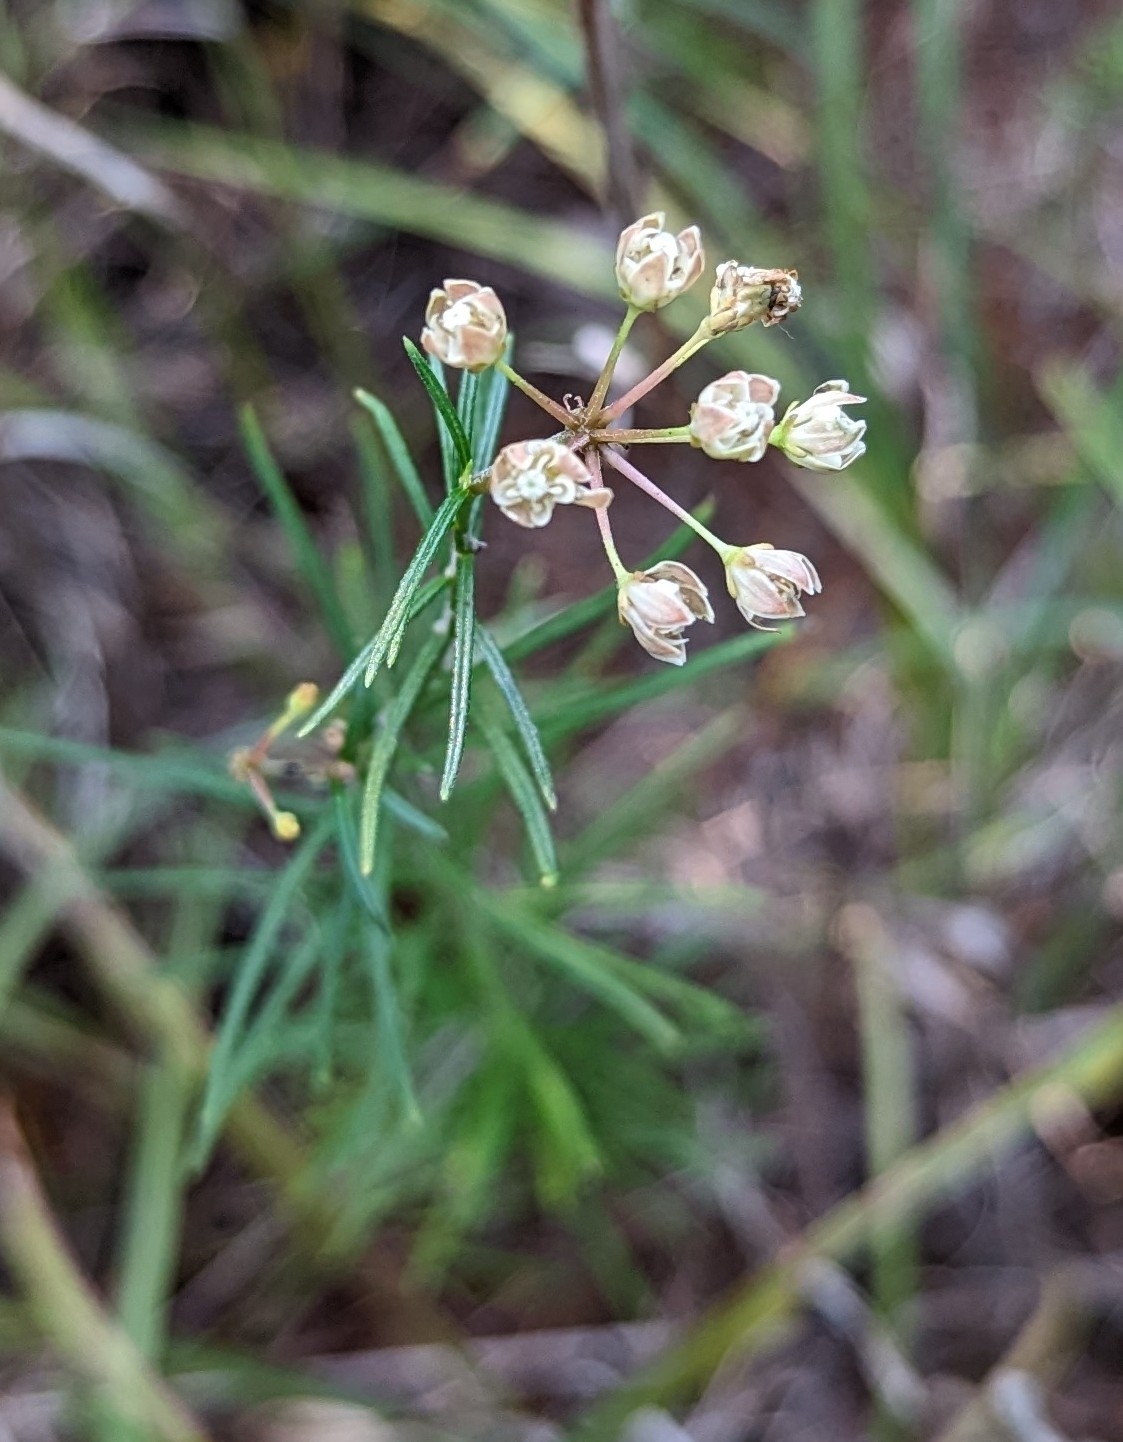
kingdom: Plantae
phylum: Tracheophyta
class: Magnoliopsida
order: Gentianales
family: Apocynaceae
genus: Asclepias
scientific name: Asclepias verticillata
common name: Eastern whorled milkweed
